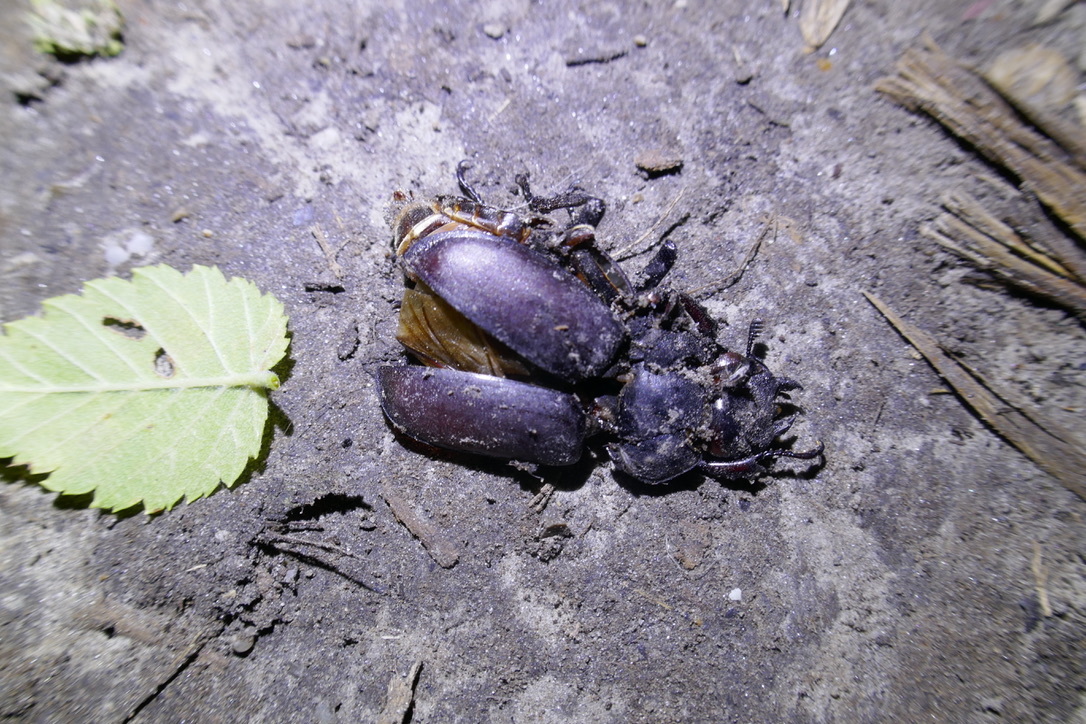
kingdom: Animalia
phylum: Arthropoda
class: Insecta
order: Coleoptera
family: Lucanidae
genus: Lucanus
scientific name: Lucanus cervus
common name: Stag beetle
